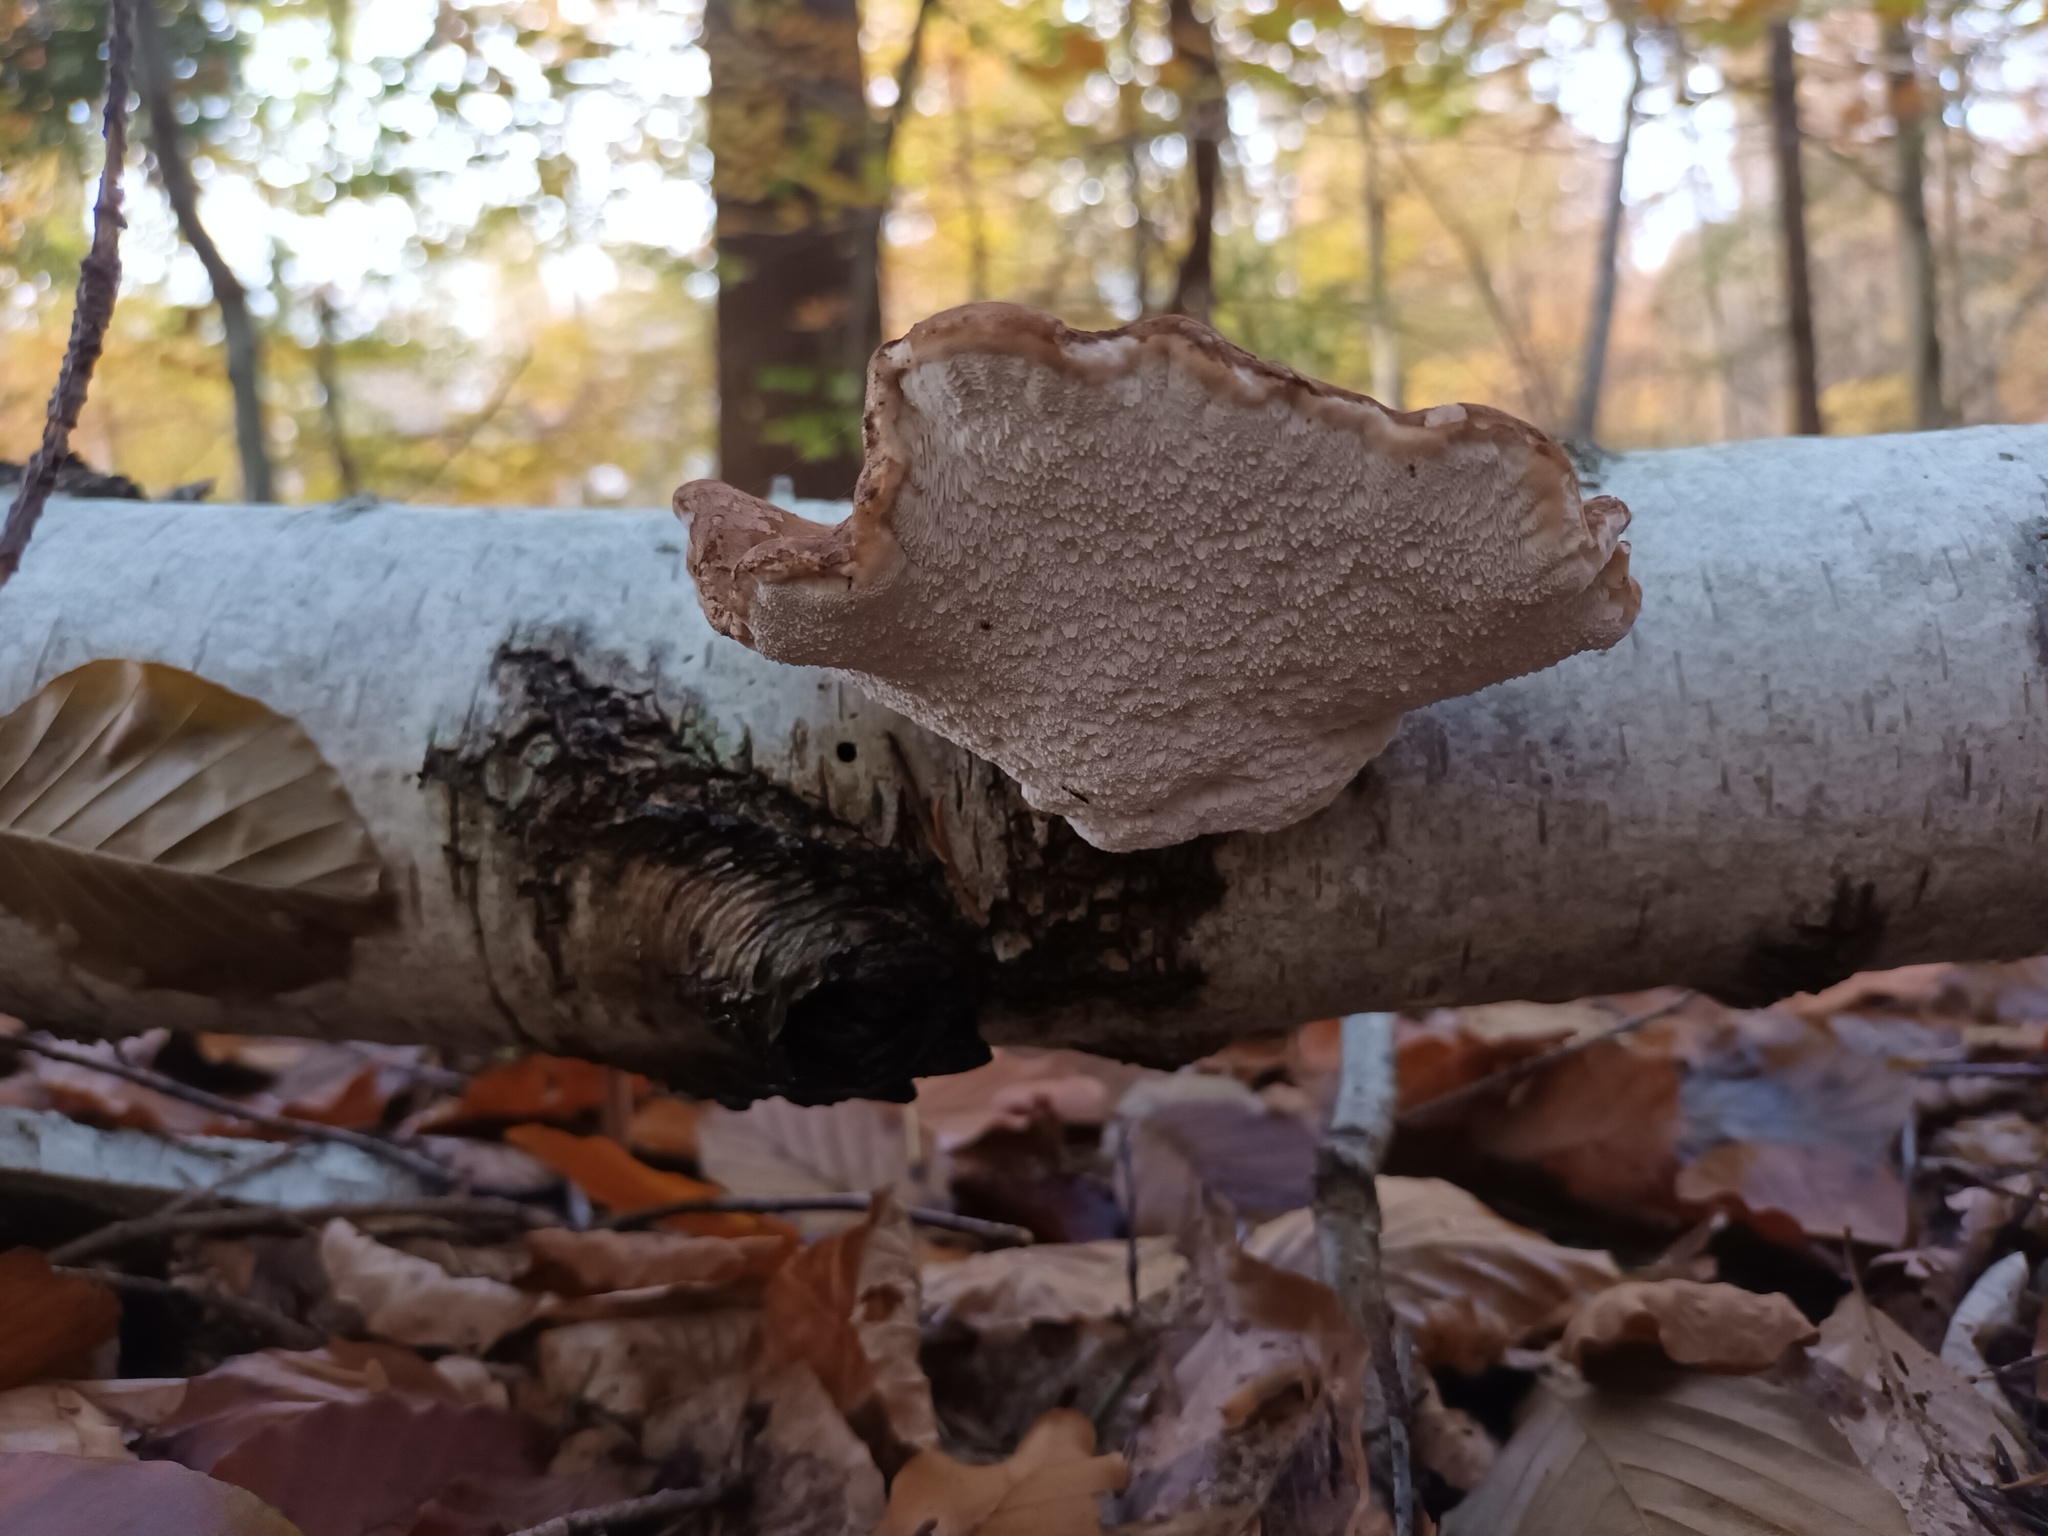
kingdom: Fungi
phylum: Basidiomycota
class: Agaricomycetes
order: Polyporales
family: Fomitopsidaceae
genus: Fomitopsis
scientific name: Fomitopsis betulina
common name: Birch polypore
